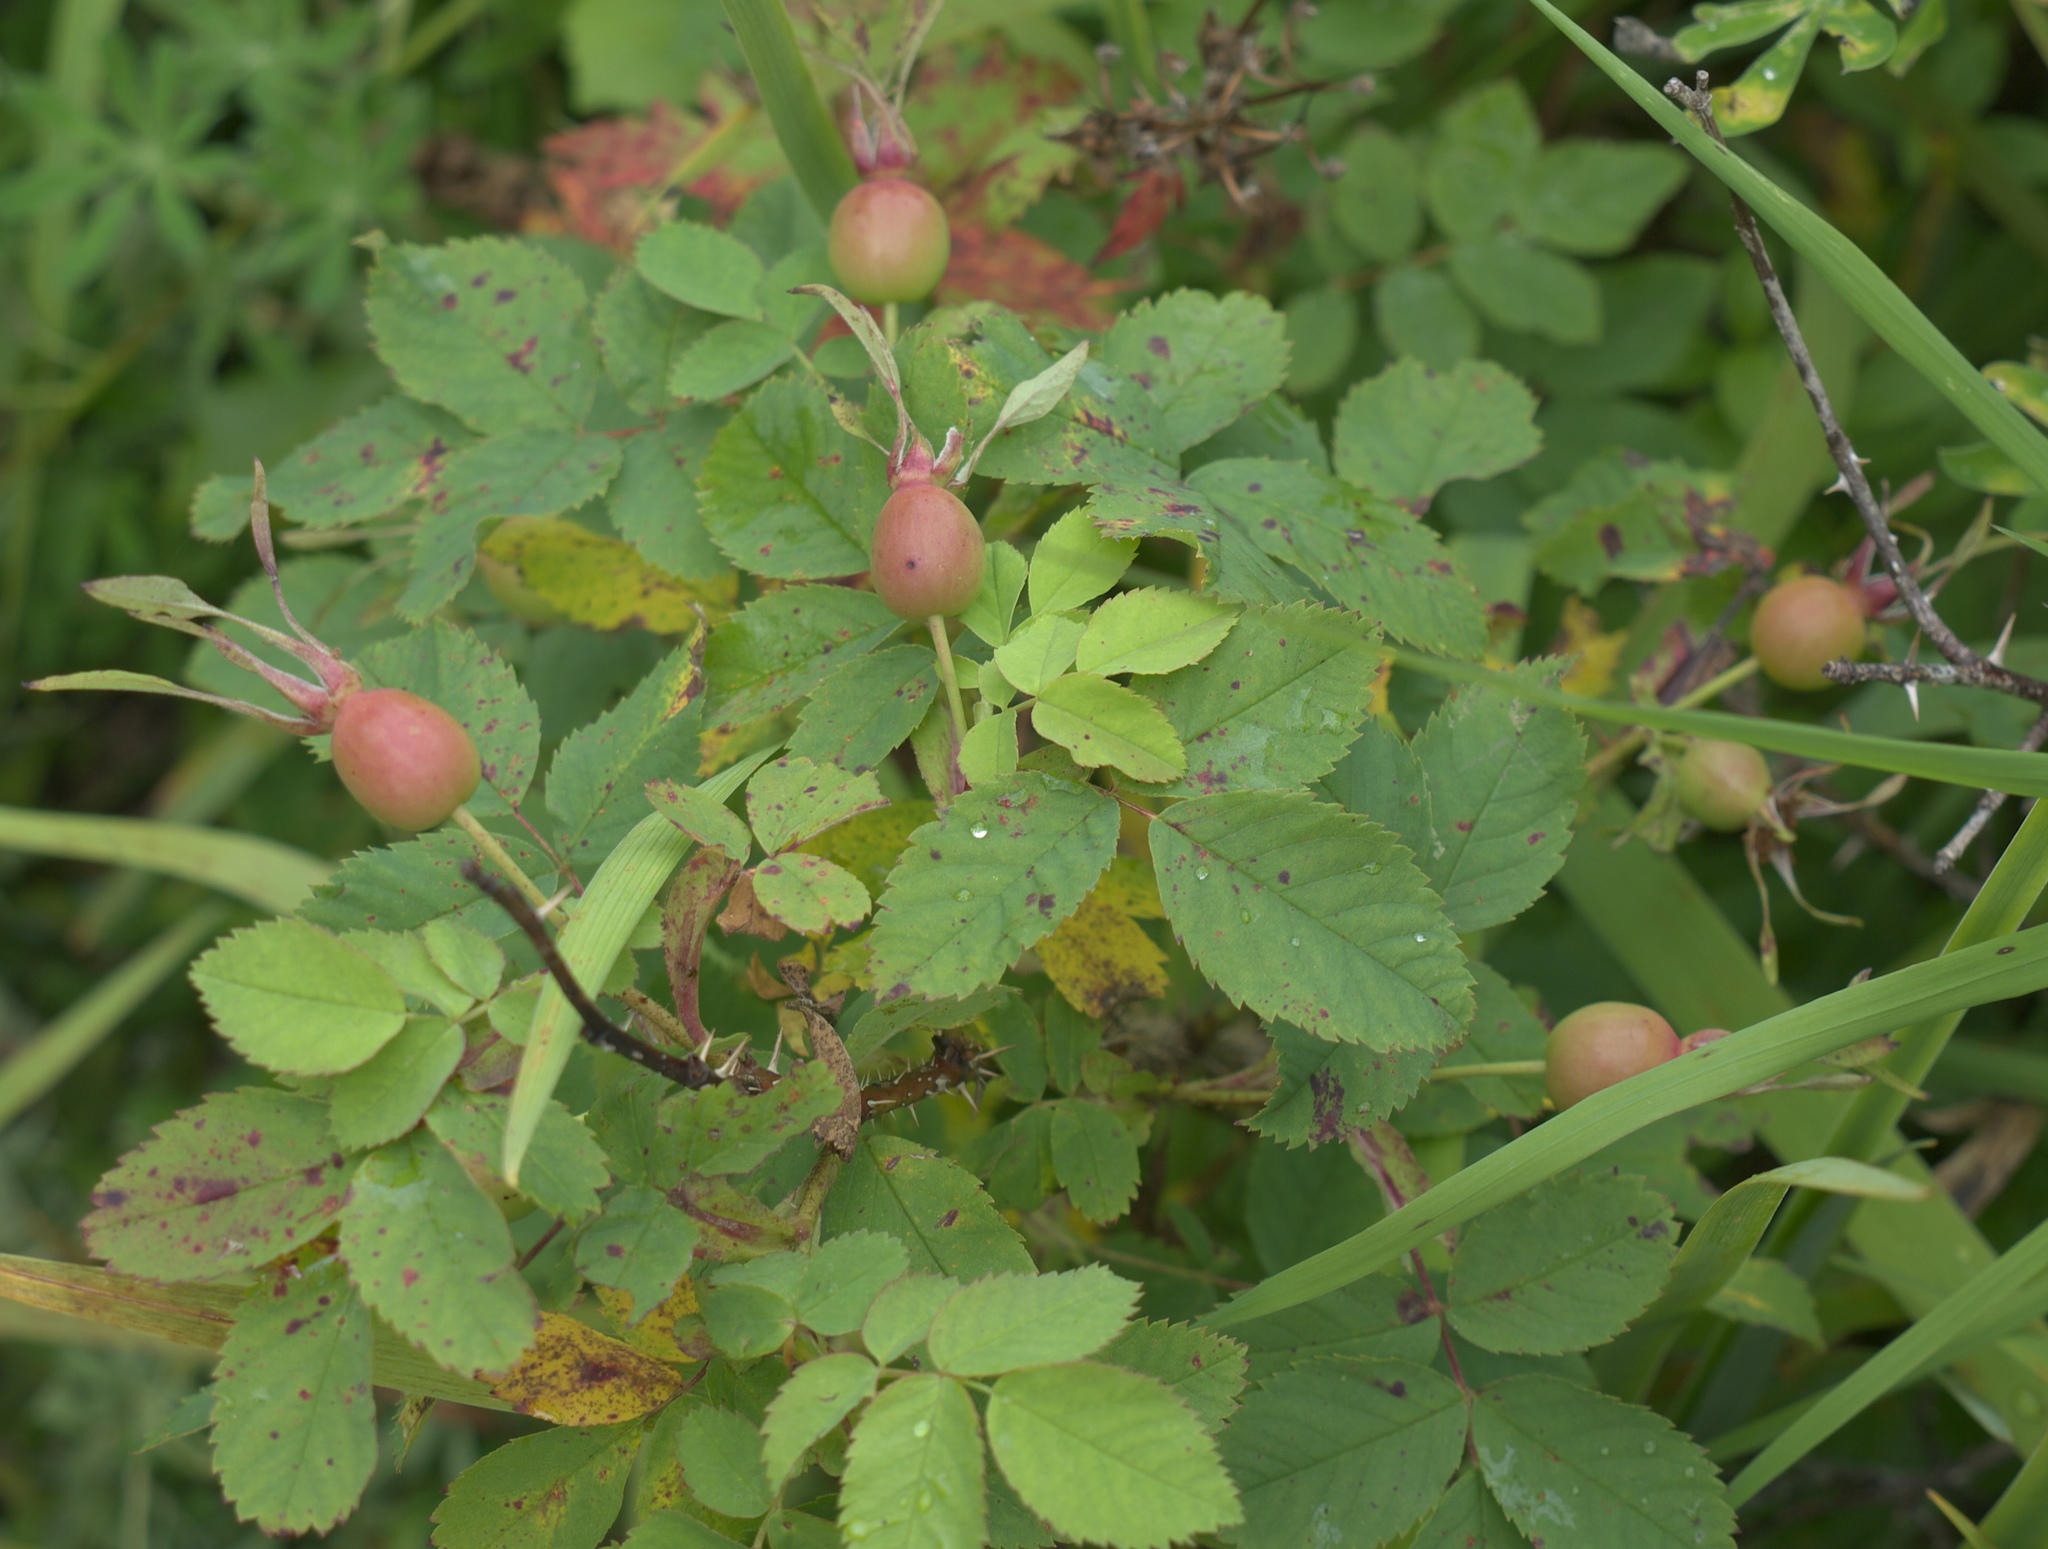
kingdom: Plantae
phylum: Tracheophyta
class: Magnoliopsida
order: Rosales
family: Rosaceae
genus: Rosa
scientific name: Rosa acicularis
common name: Prickly rose
